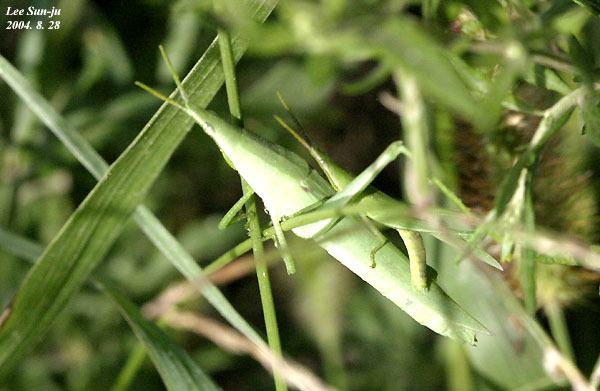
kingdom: Animalia
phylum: Arthropoda
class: Insecta
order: Orthoptera
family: Pyrgomorphidae
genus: Atractomorpha
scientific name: Atractomorpha lata
